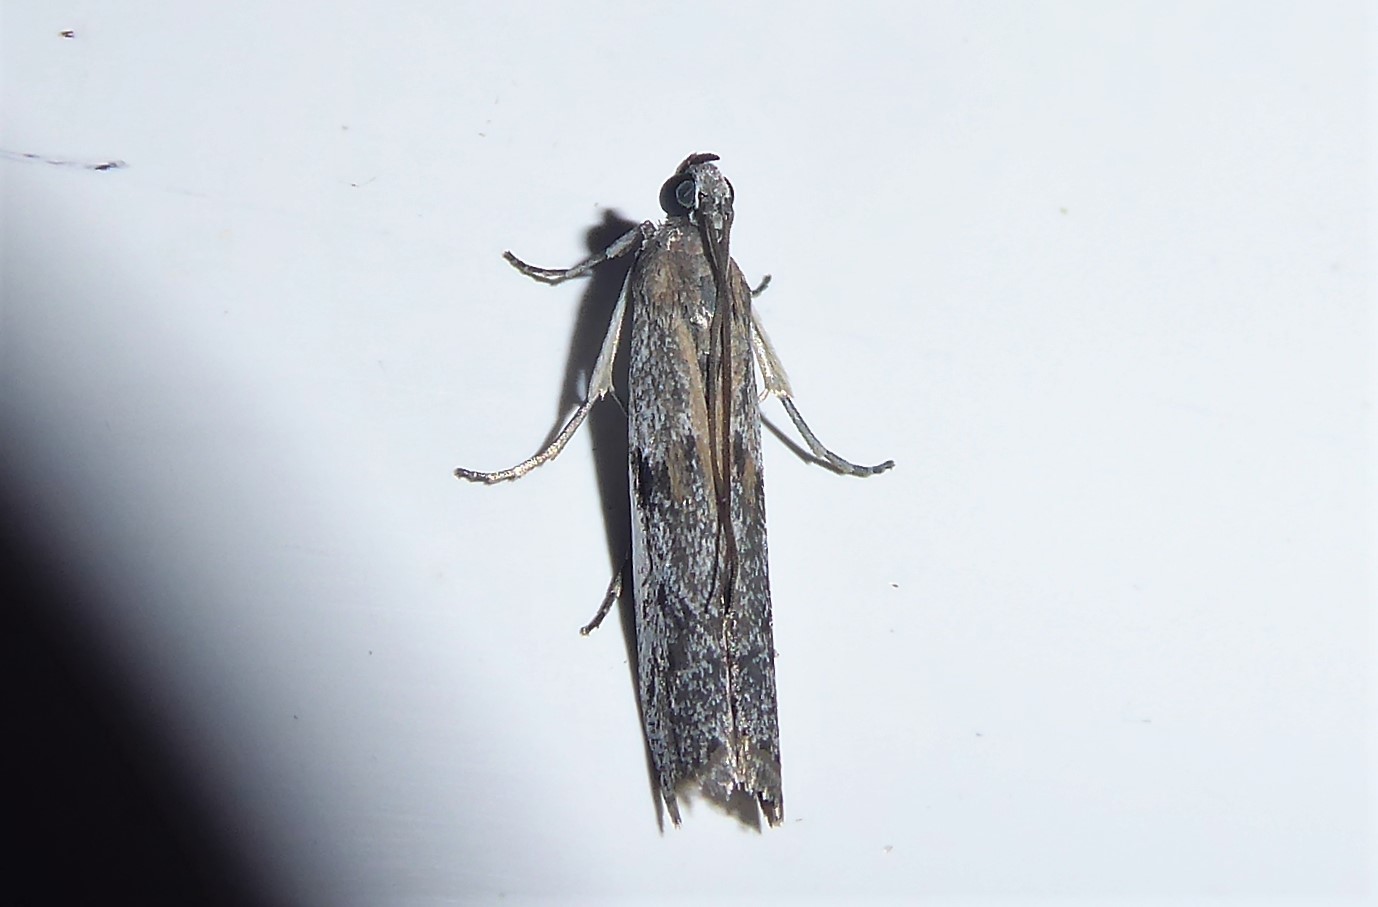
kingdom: Animalia
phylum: Arthropoda
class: Insecta
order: Lepidoptera
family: Pyralidae
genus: Patagoniodes
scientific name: Patagoniodes farinaria
